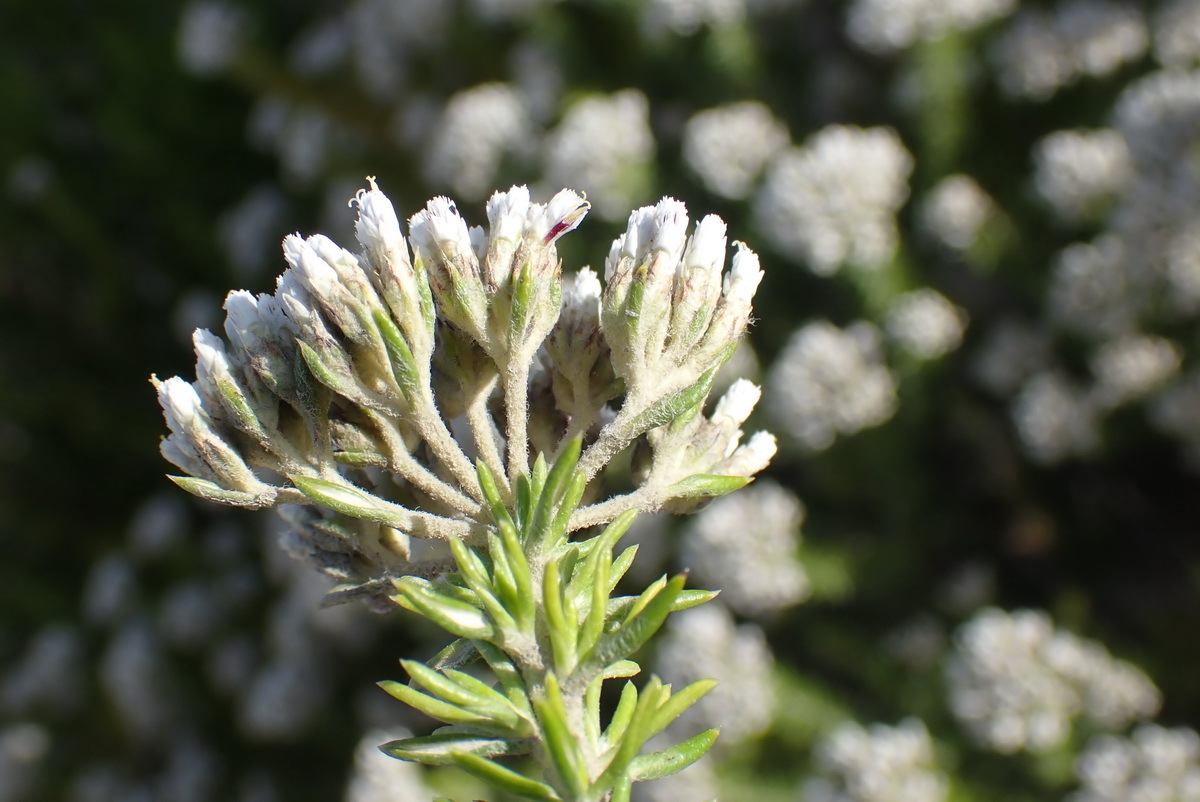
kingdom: Plantae
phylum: Tracheophyta
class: Magnoliopsida
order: Asterales
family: Asteraceae
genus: Metalasia
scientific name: Metalasia densa
